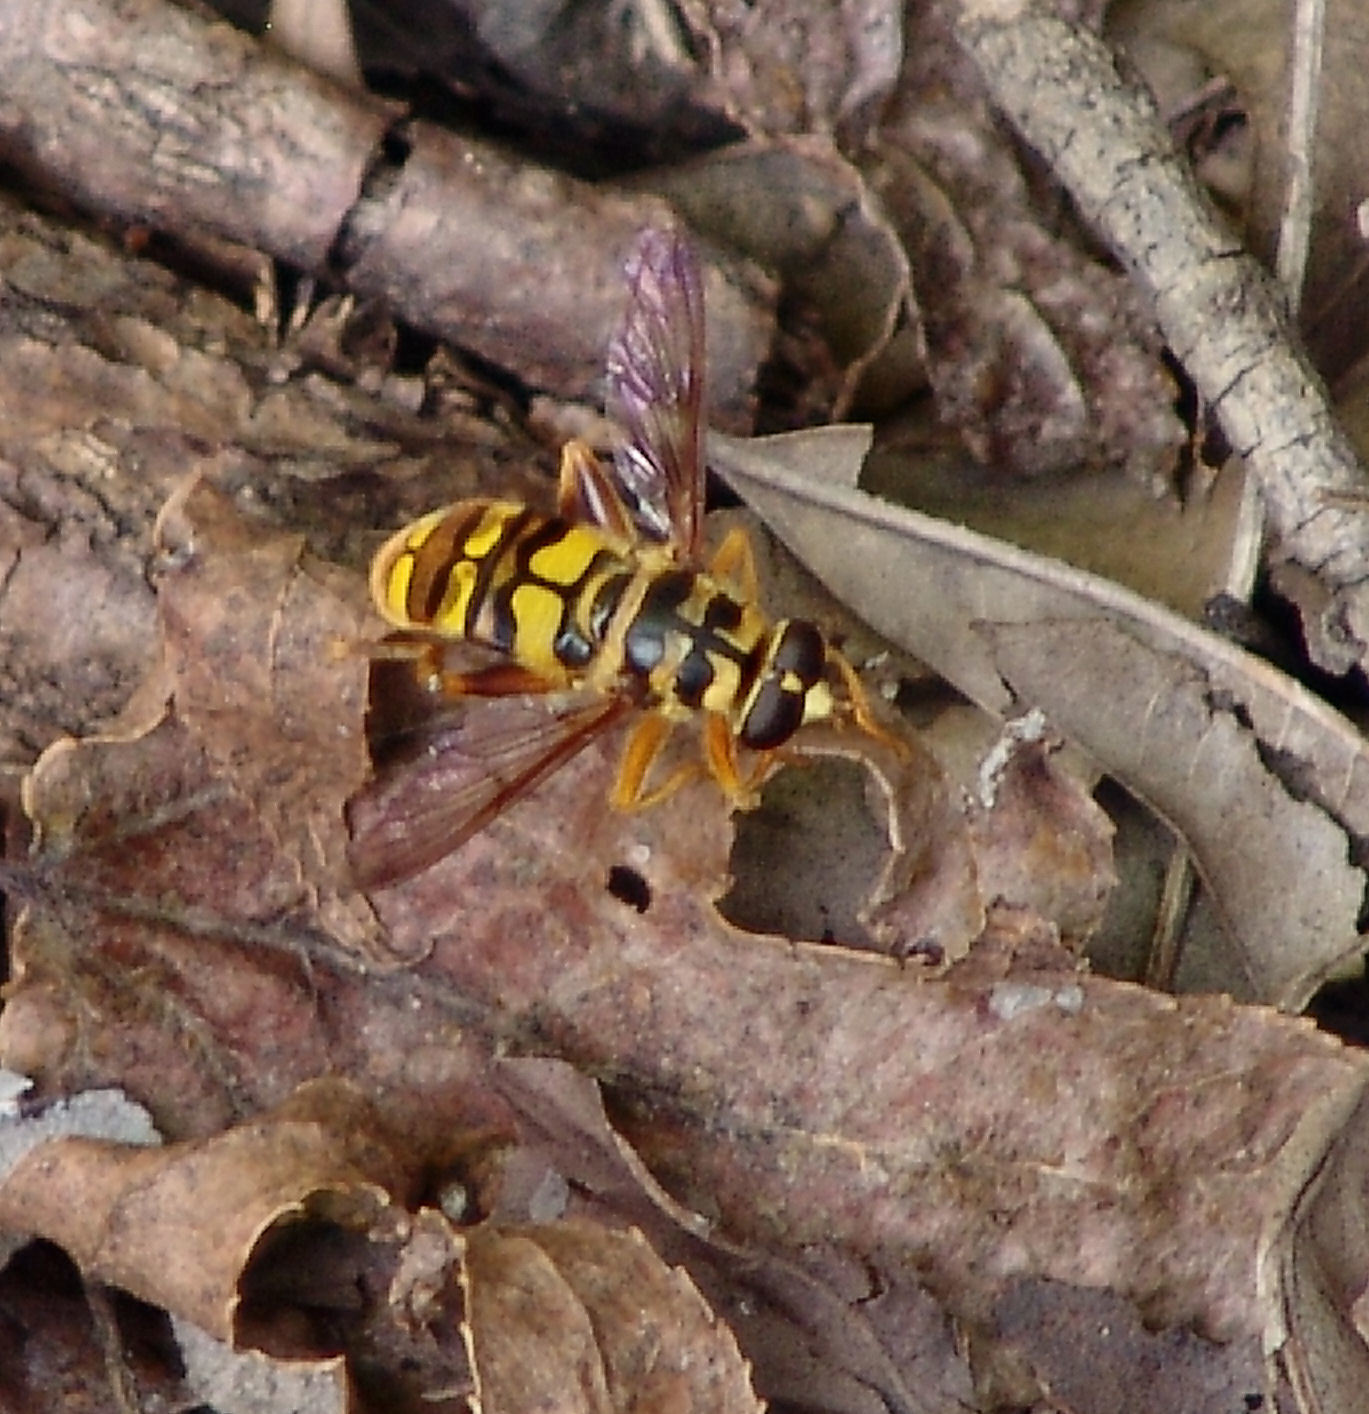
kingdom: Animalia
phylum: Arthropoda
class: Insecta
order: Diptera
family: Syrphidae
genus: Milesia
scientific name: Milesia virginiensis
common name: Virginia giant
